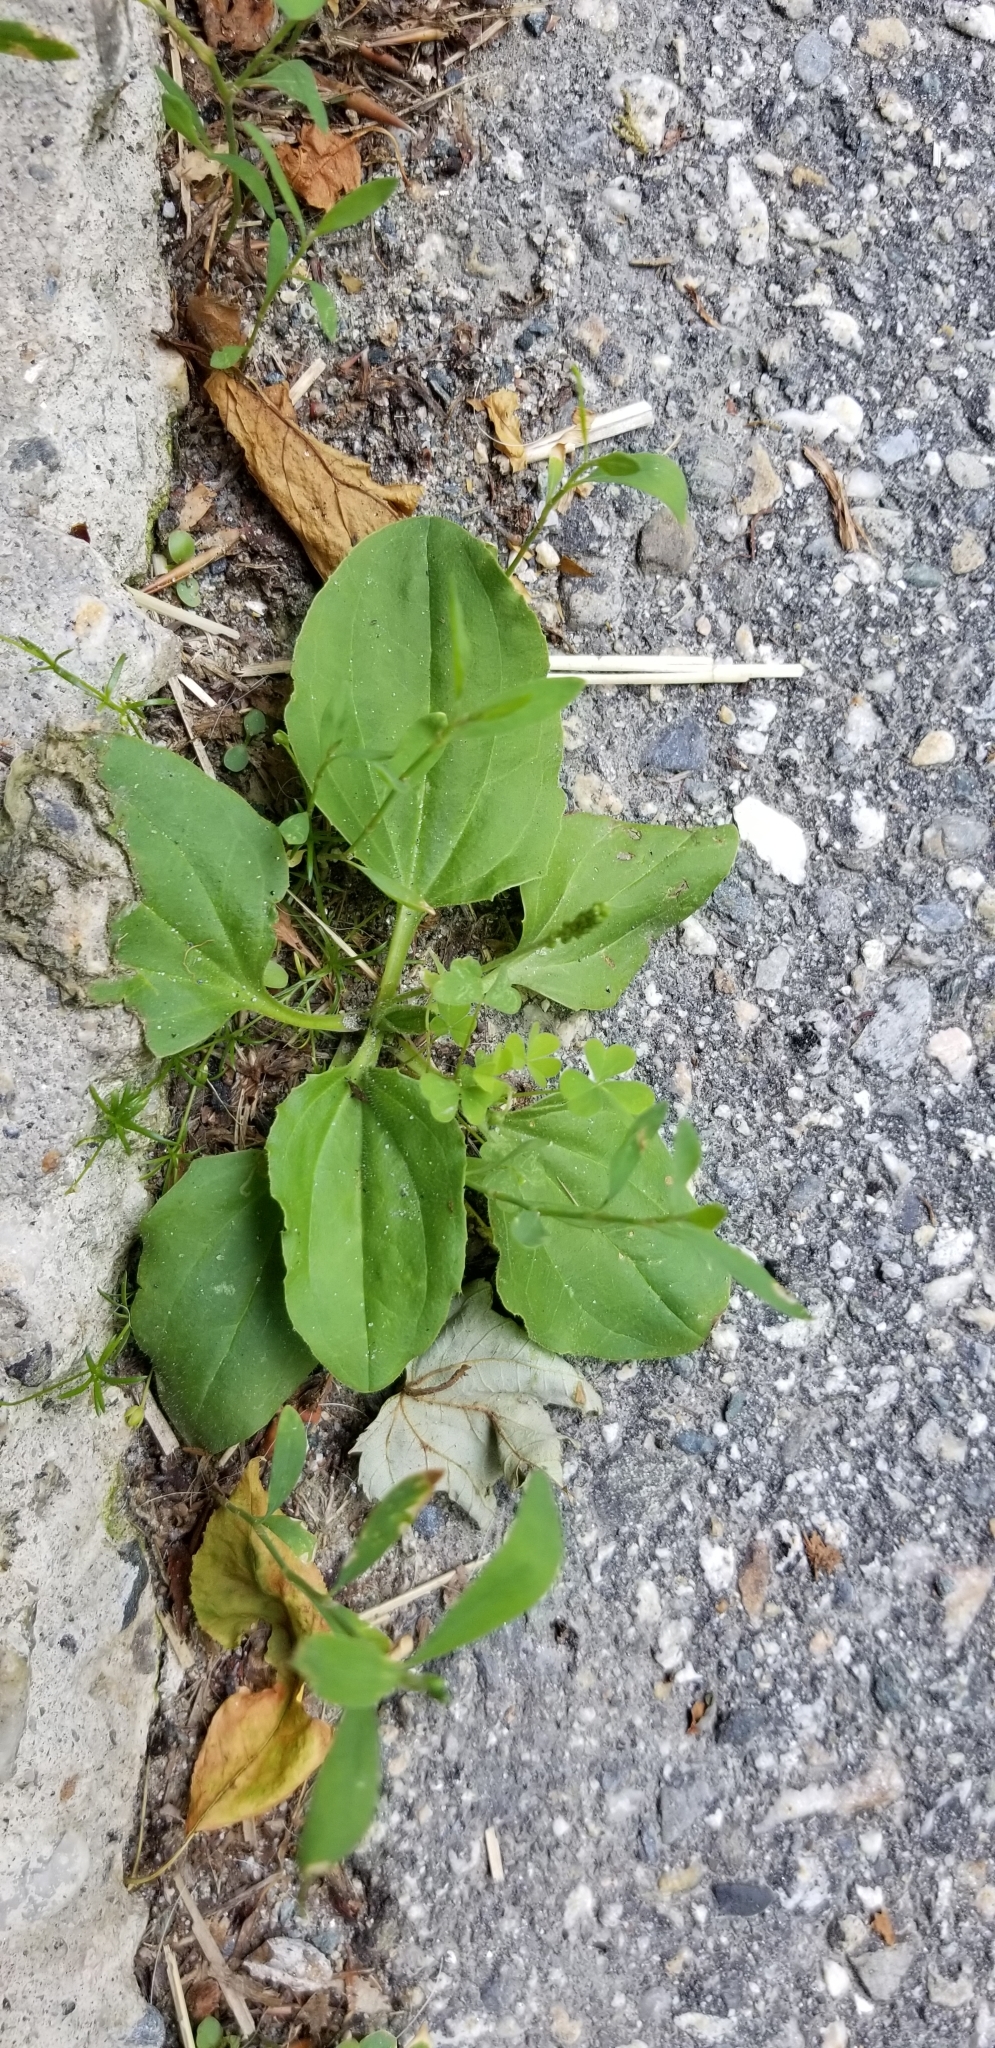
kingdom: Plantae
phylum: Tracheophyta
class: Magnoliopsida
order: Lamiales
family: Plantaginaceae
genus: Plantago
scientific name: Plantago major
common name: Common plantain
